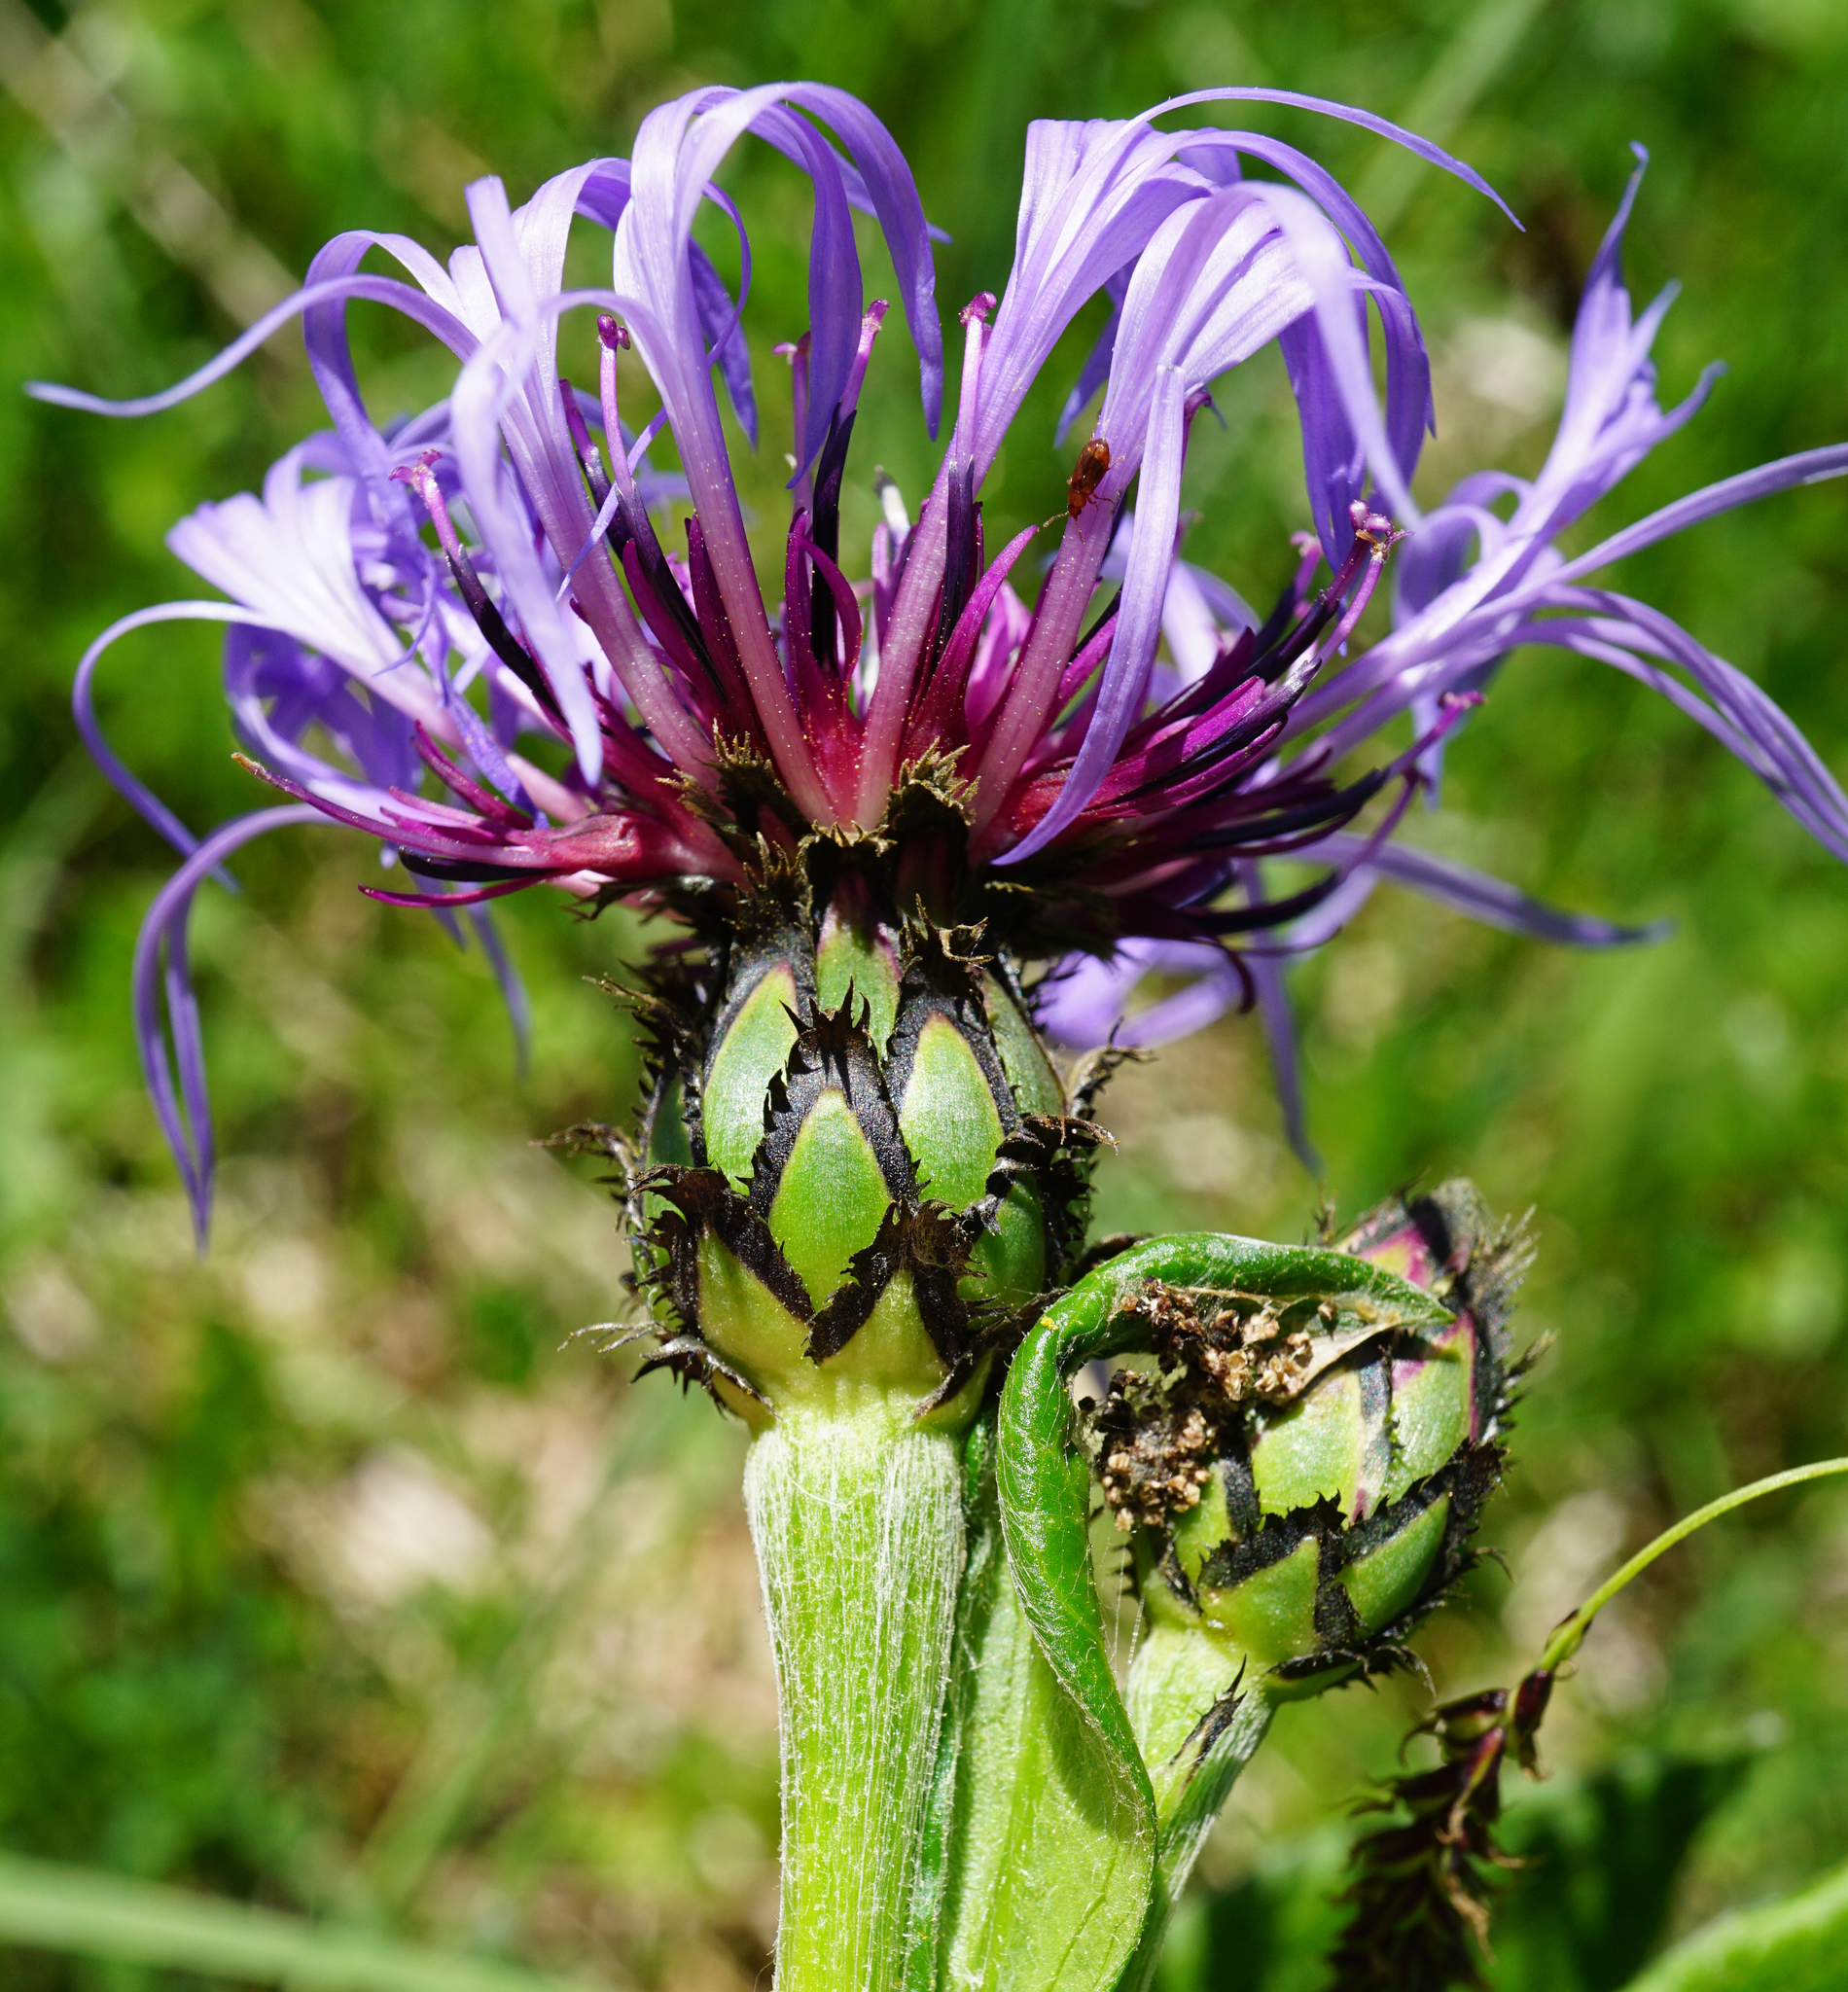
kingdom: Plantae
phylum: Tracheophyta
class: Magnoliopsida
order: Asterales
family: Asteraceae
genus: Centaurea
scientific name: Centaurea montana
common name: Perennial cornflower
